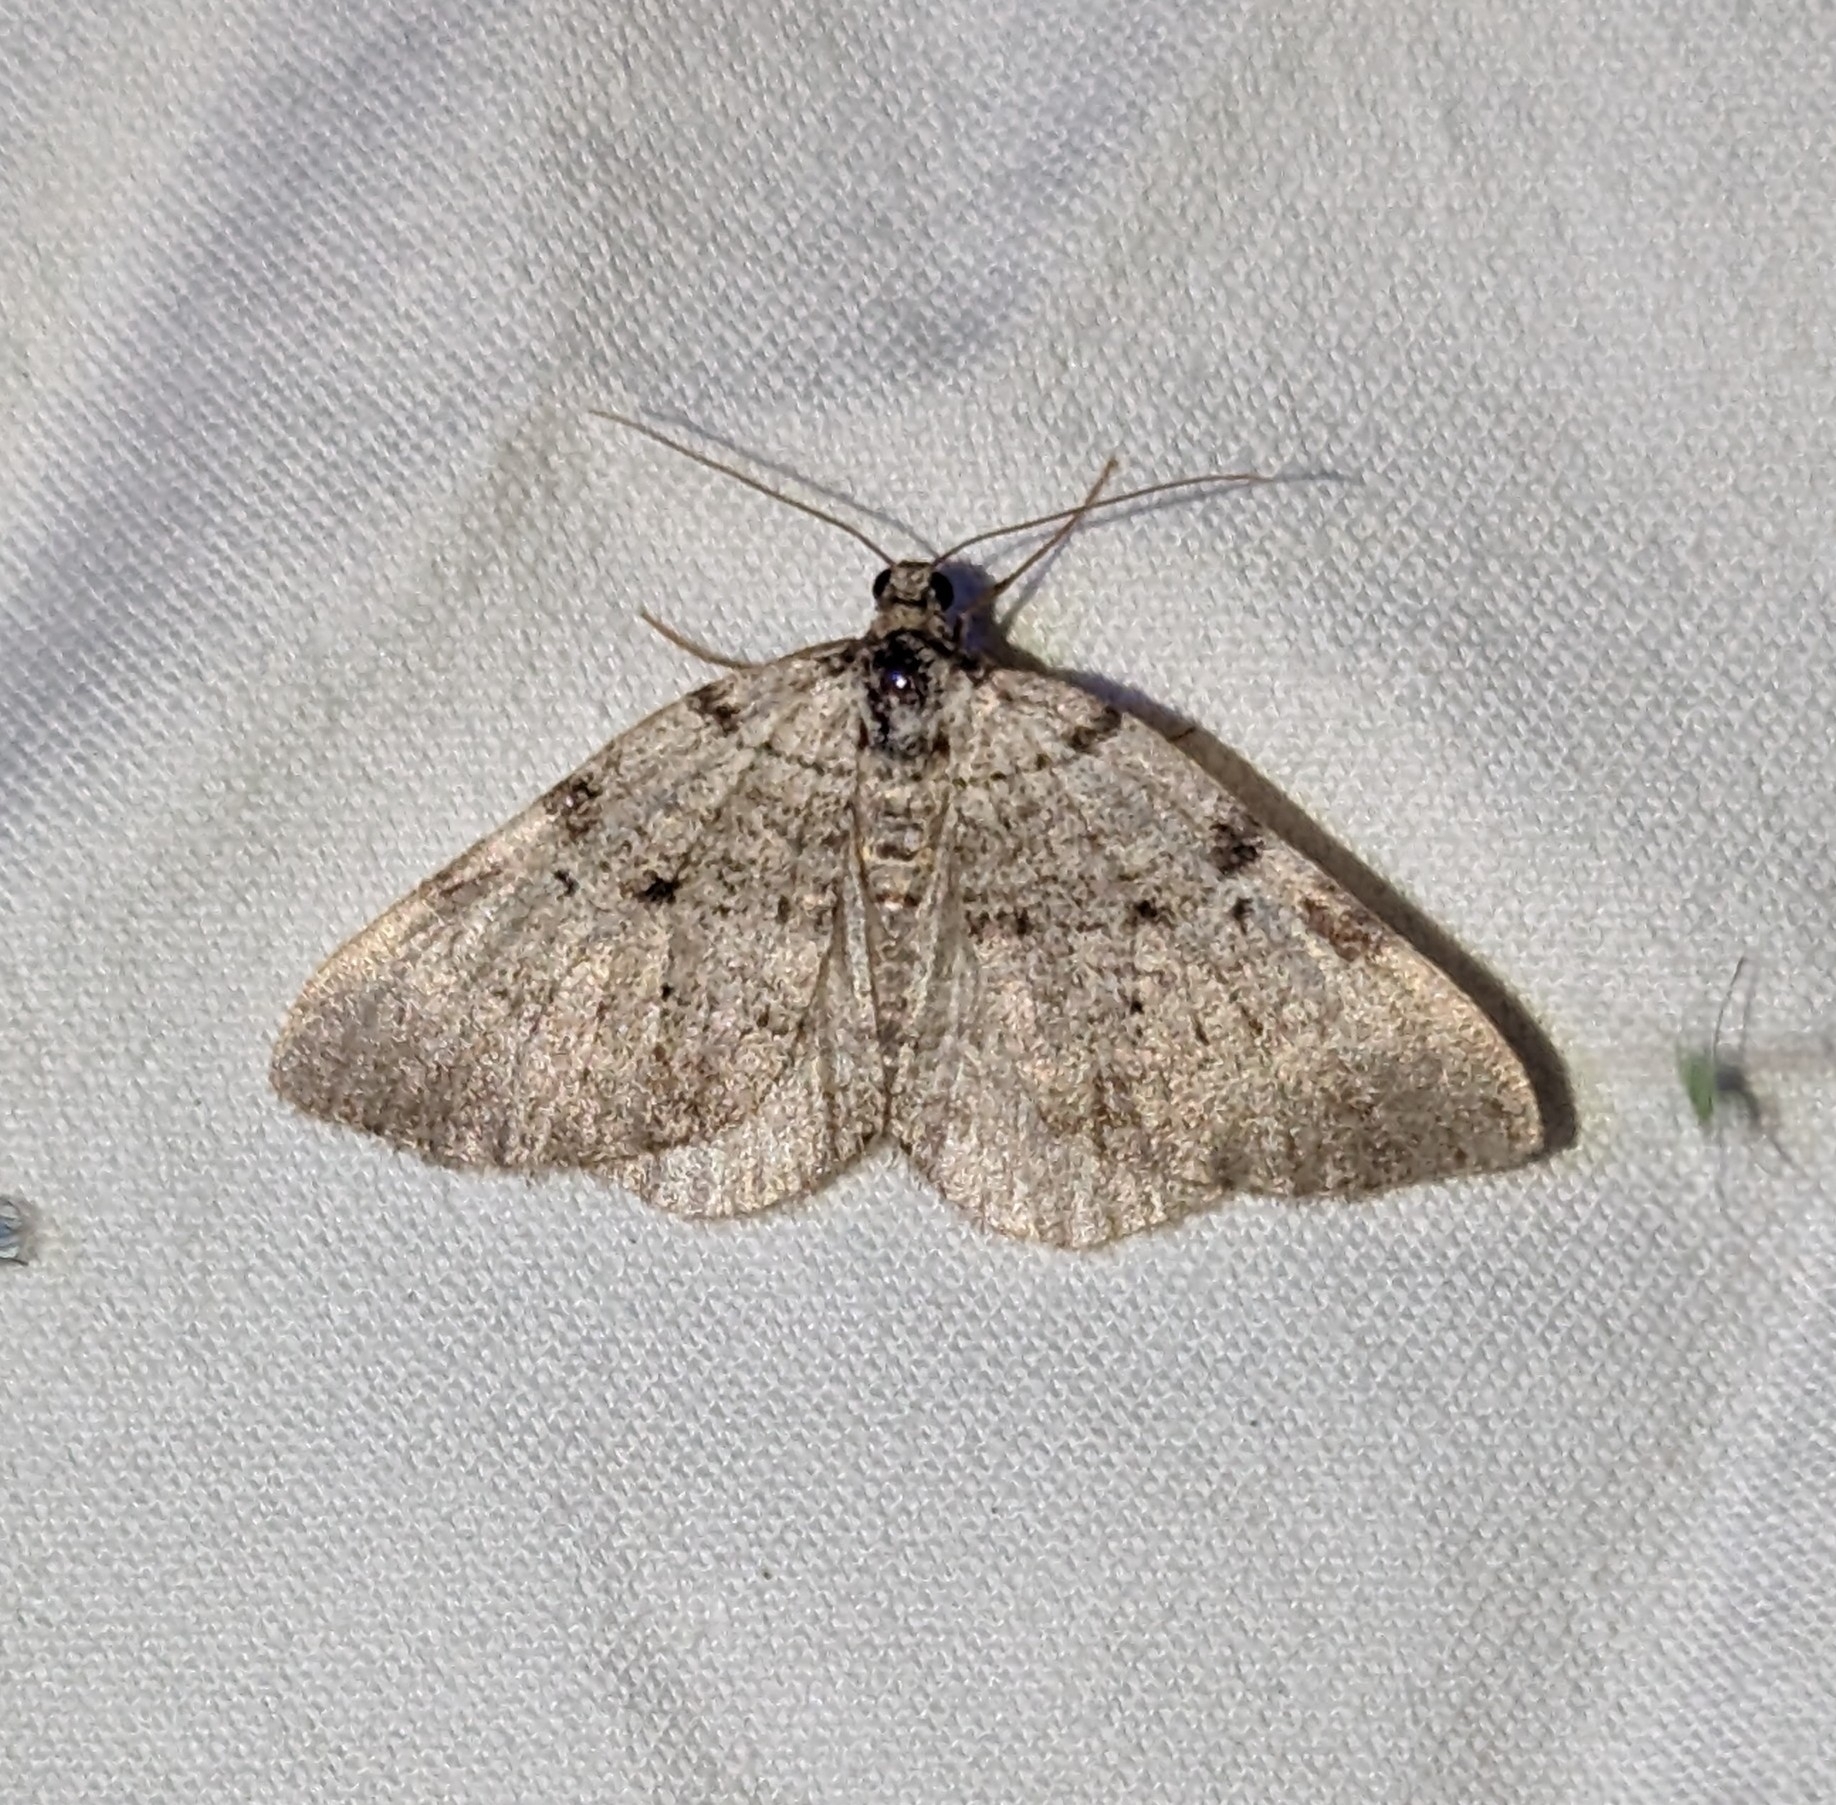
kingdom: Animalia
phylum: Arthropoda
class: Insecta
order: Lepidoptera
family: Geometridae
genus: Perizoma
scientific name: Perizoma costiguttata
